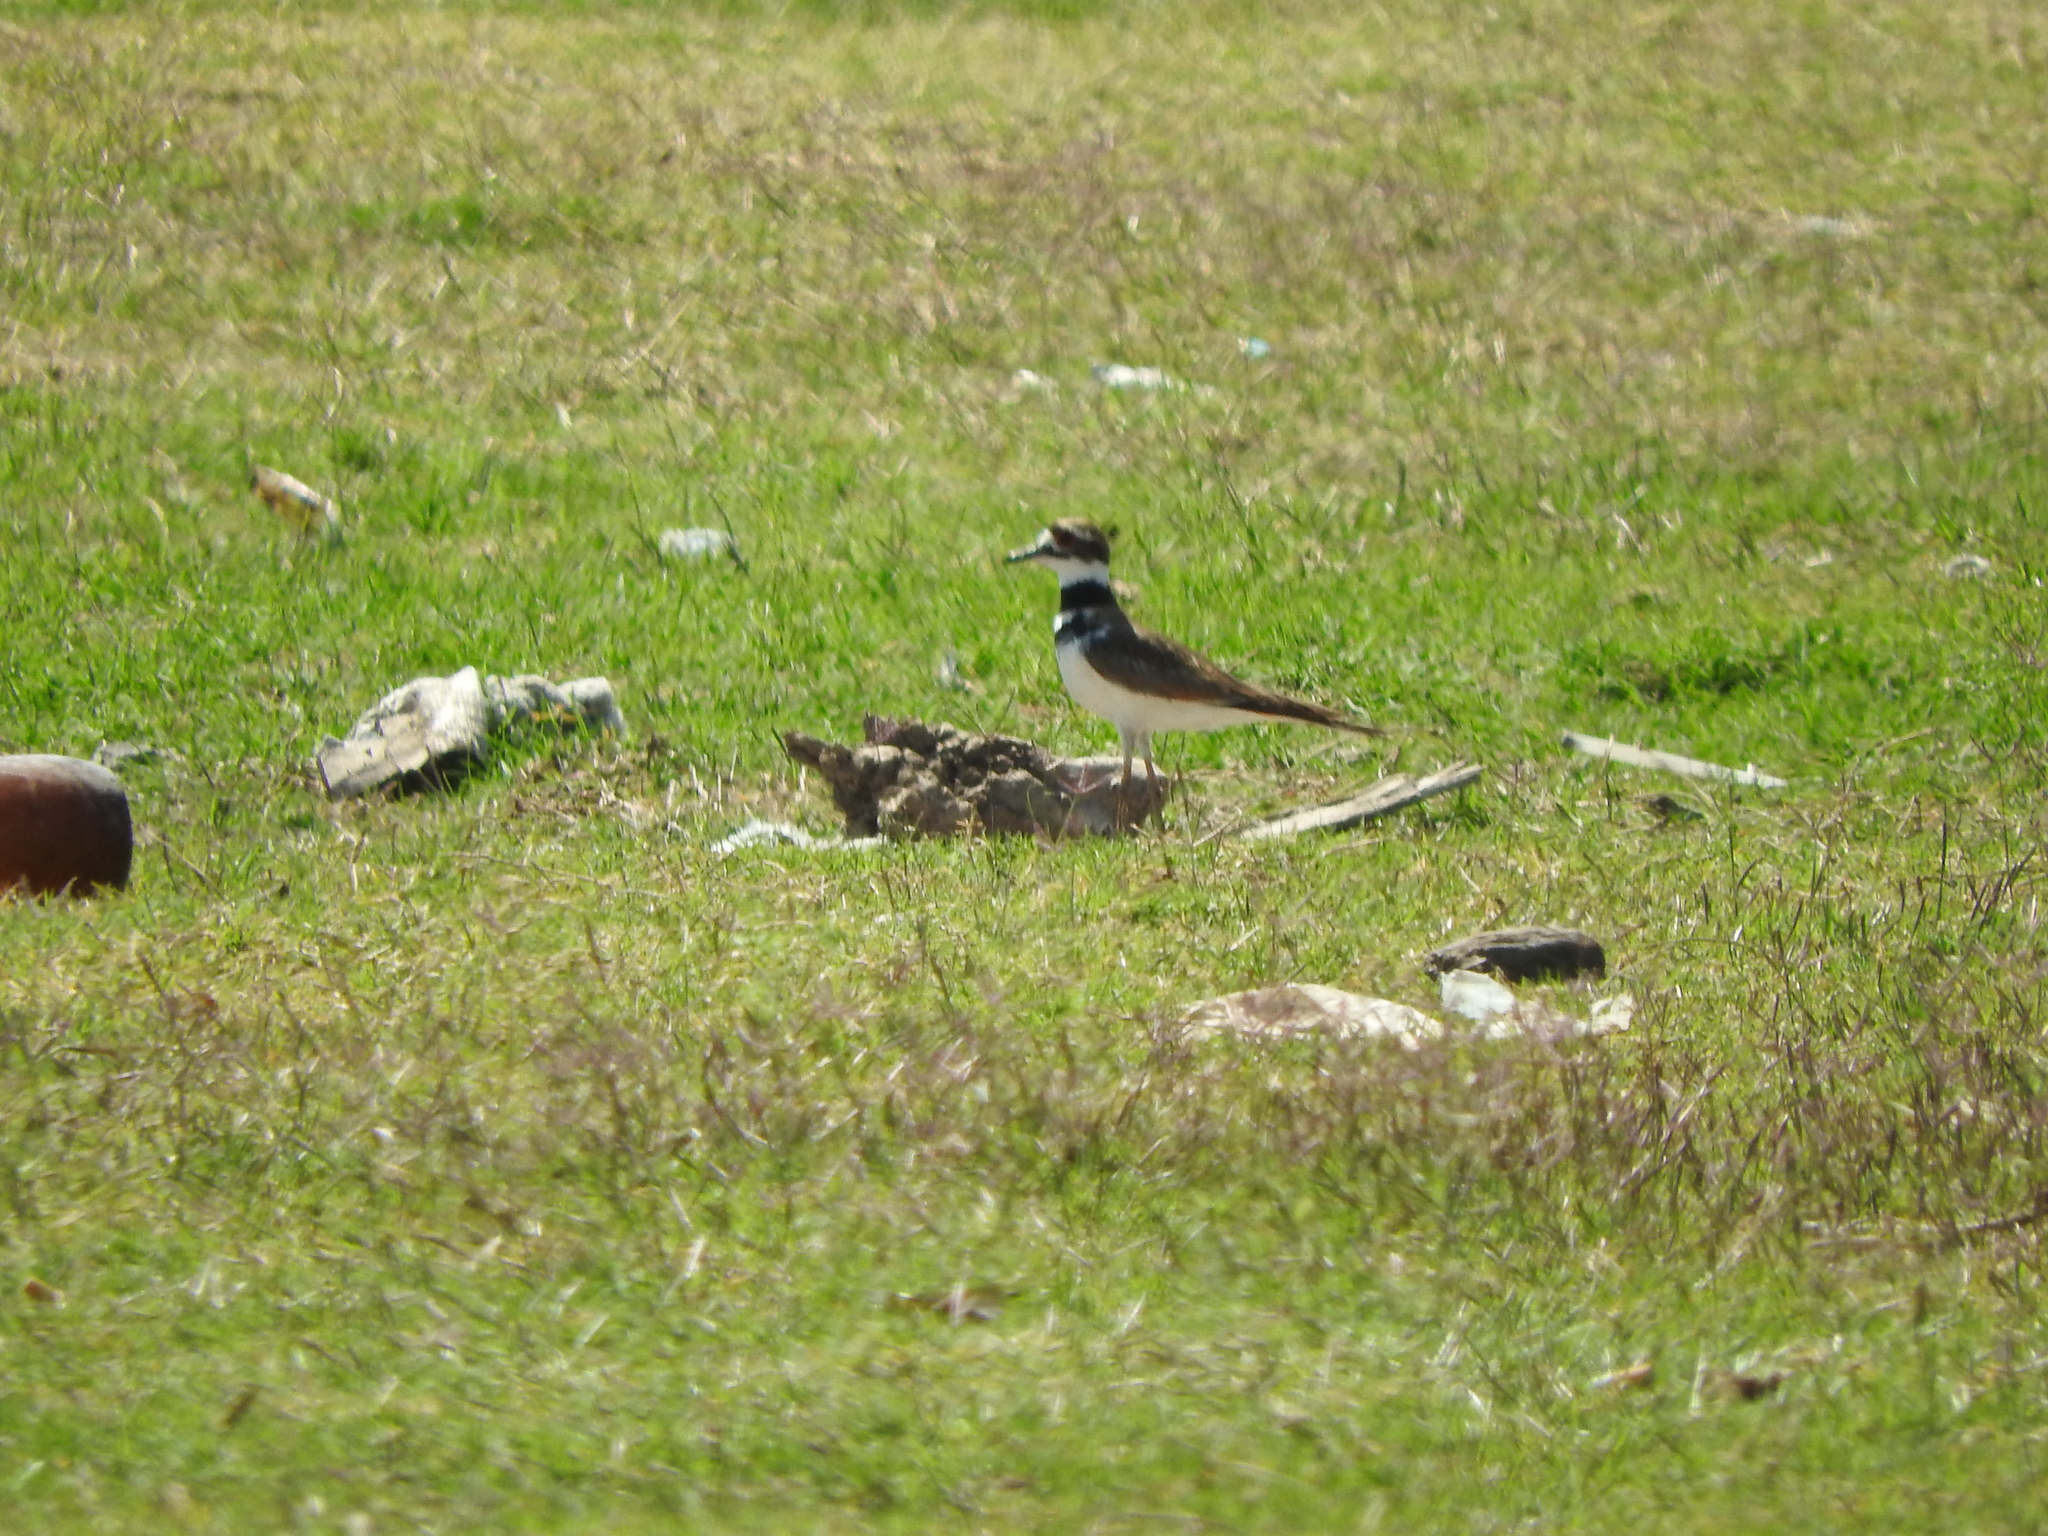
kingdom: Animalia
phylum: Chordata
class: Aves
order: Charadriiformes
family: Charadriidae
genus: Charadrius
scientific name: Charadrius vociferus
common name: Killdeer
